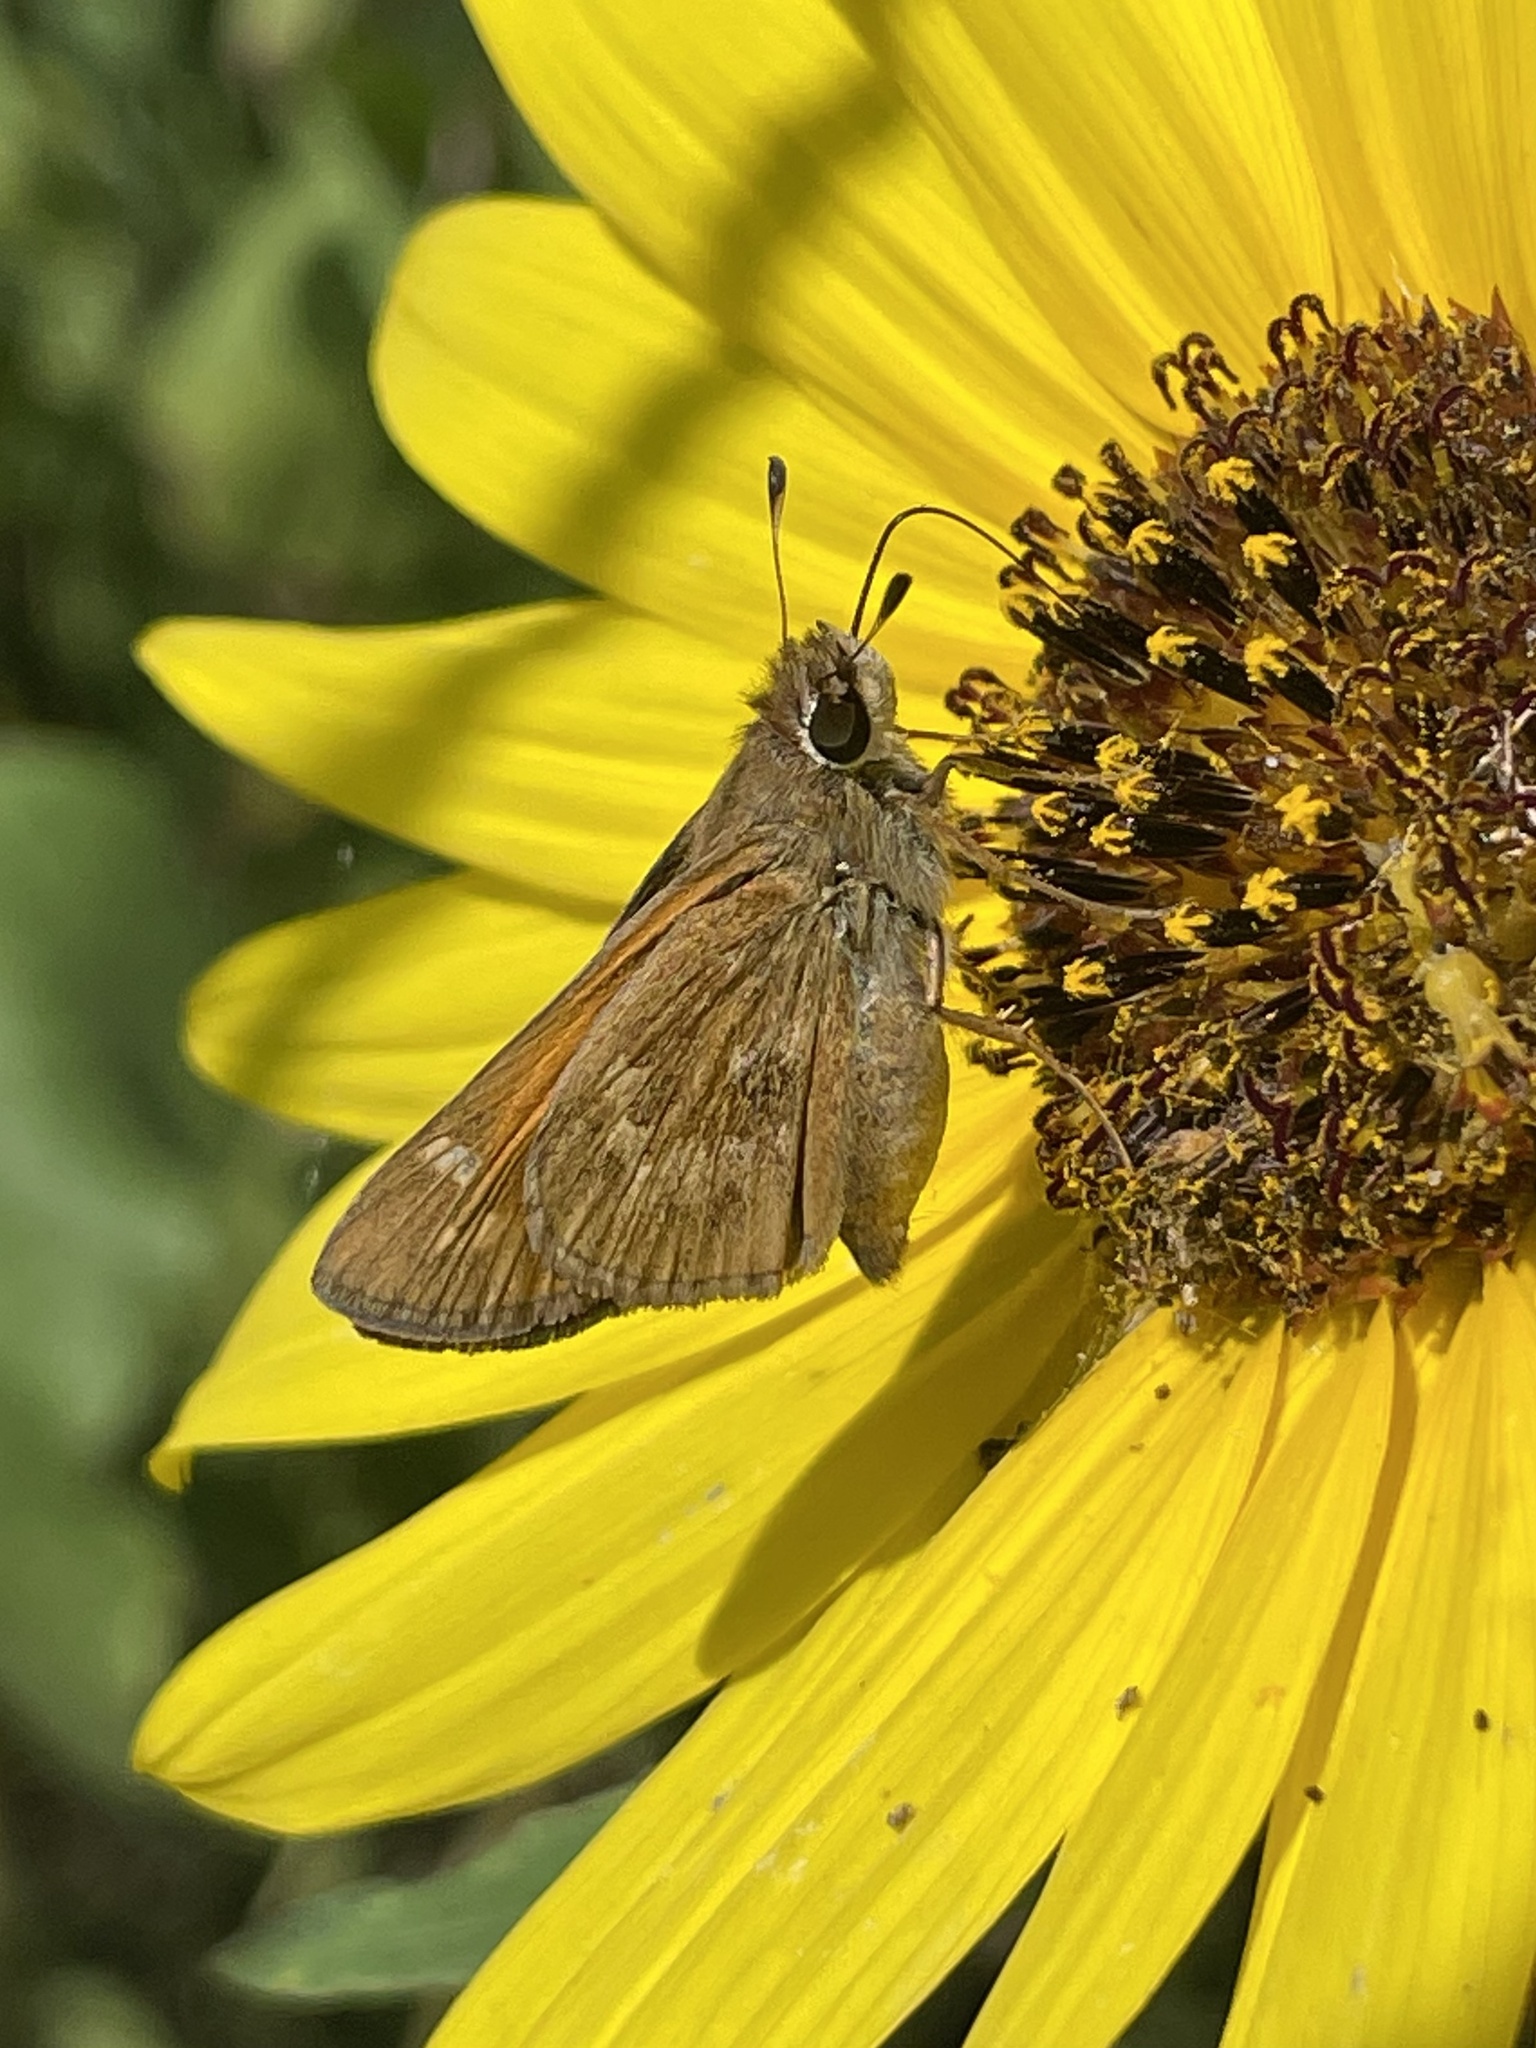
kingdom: Animalia
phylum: Arthropoda
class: Insecta
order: Lepidoptera
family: Hesperiidae
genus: Atalopedes
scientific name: Atalopedes
